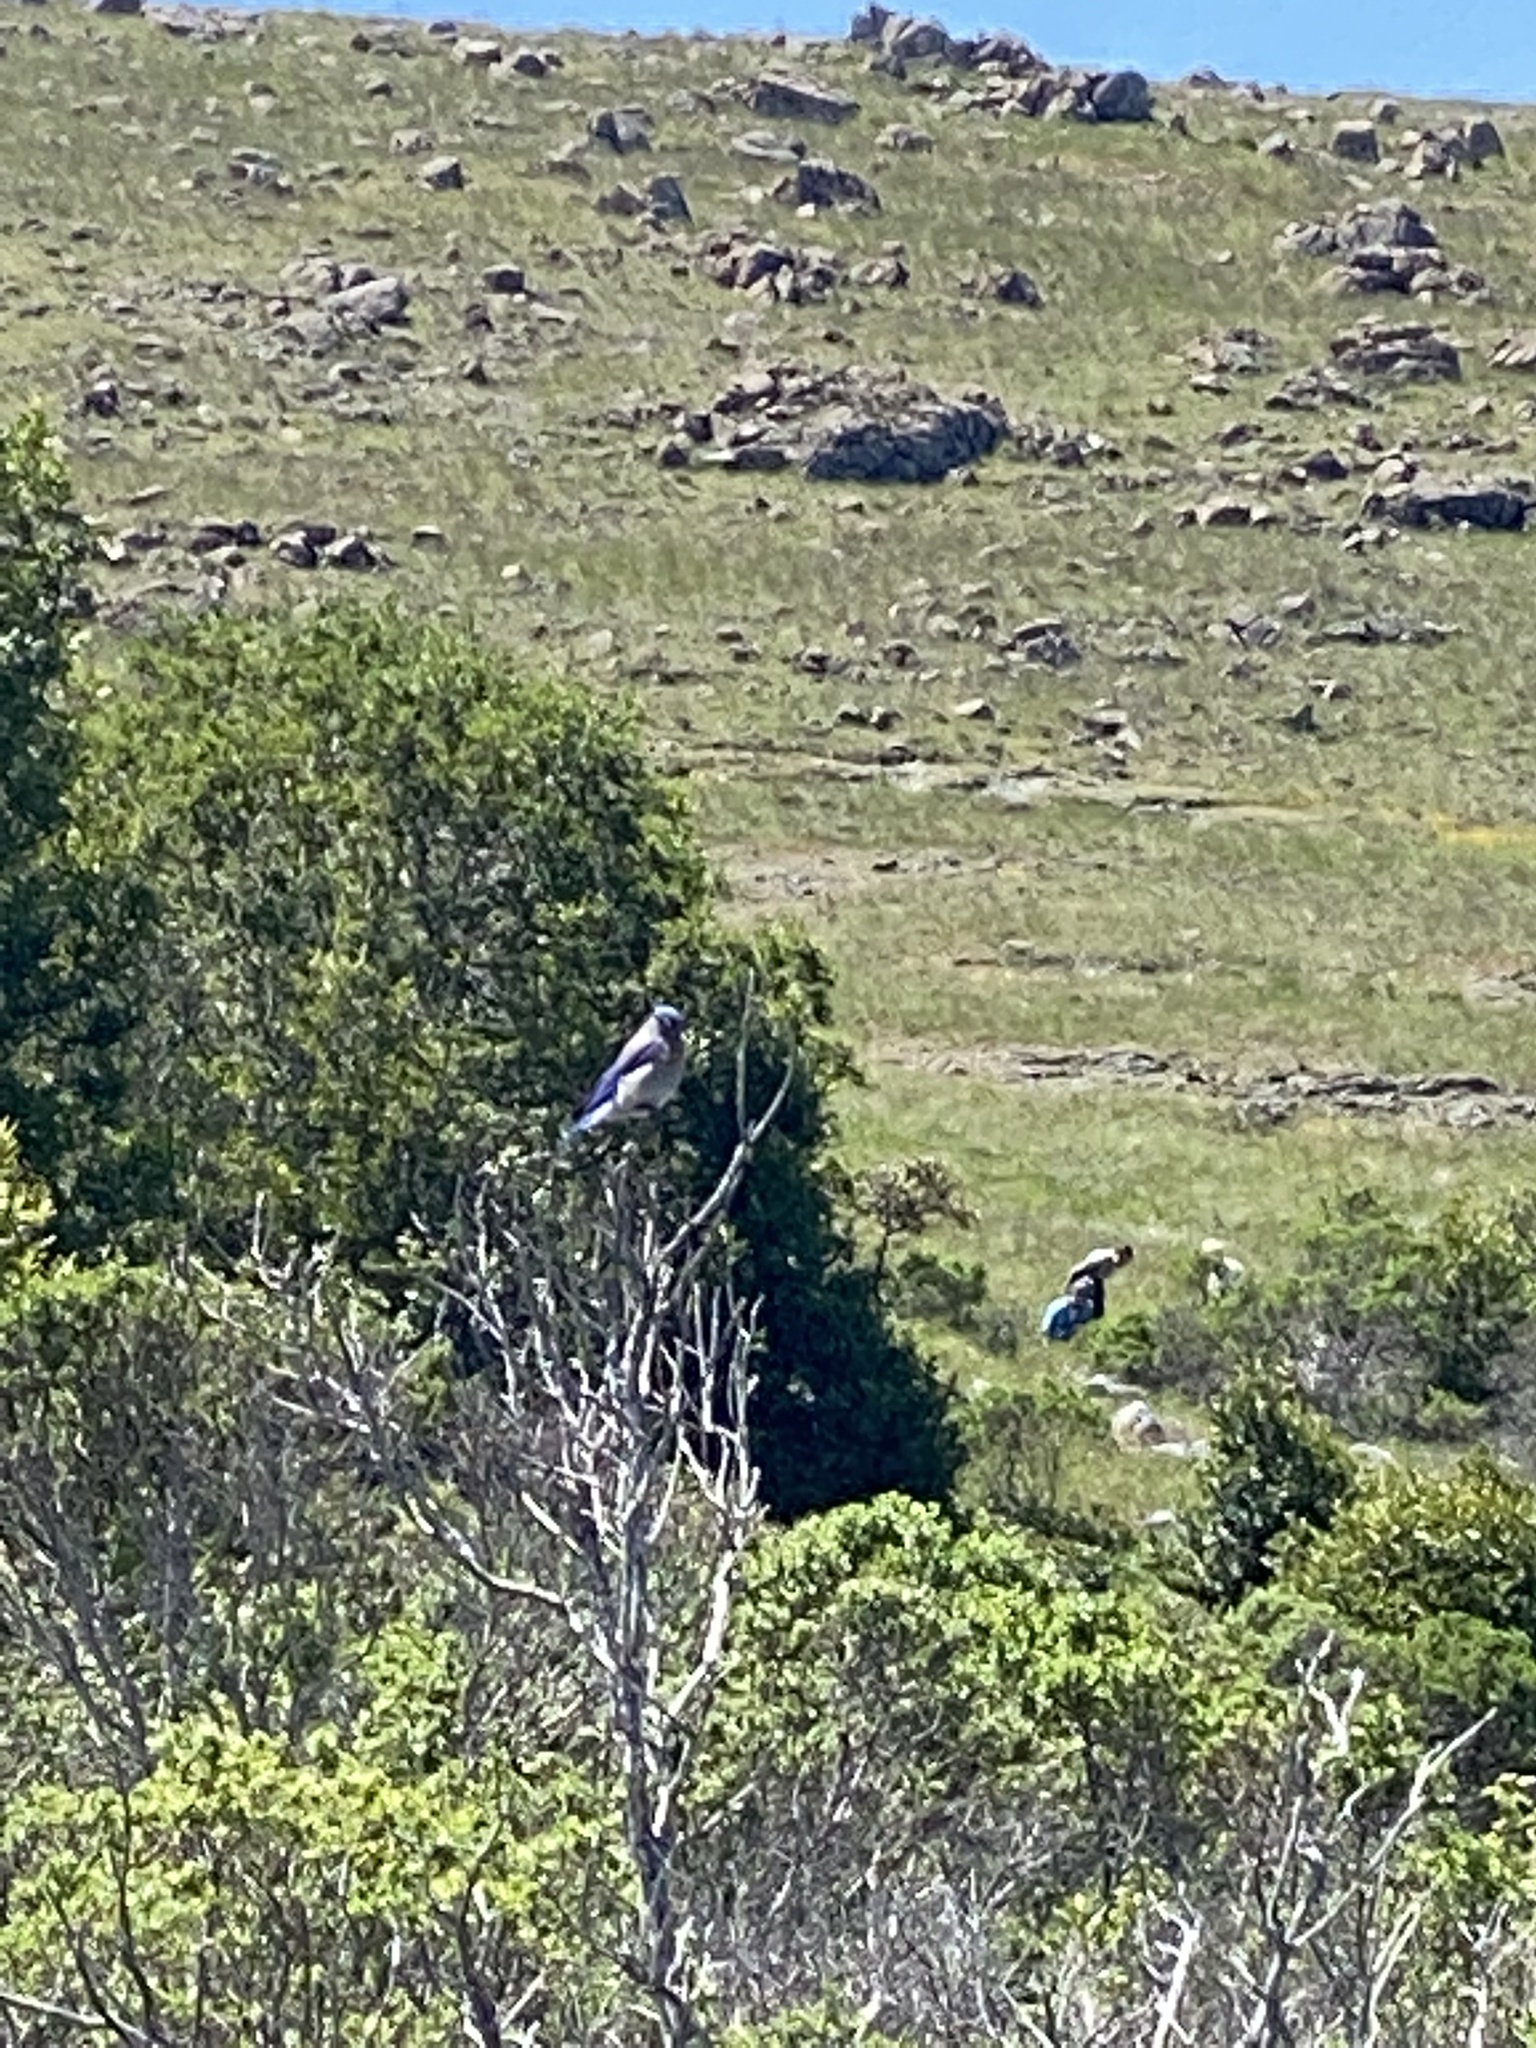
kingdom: Animalia
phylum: Chordata
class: Aves
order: Passeriformes
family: Turdidae
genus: Sialia
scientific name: Sialia mexicana
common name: Western bluebird
